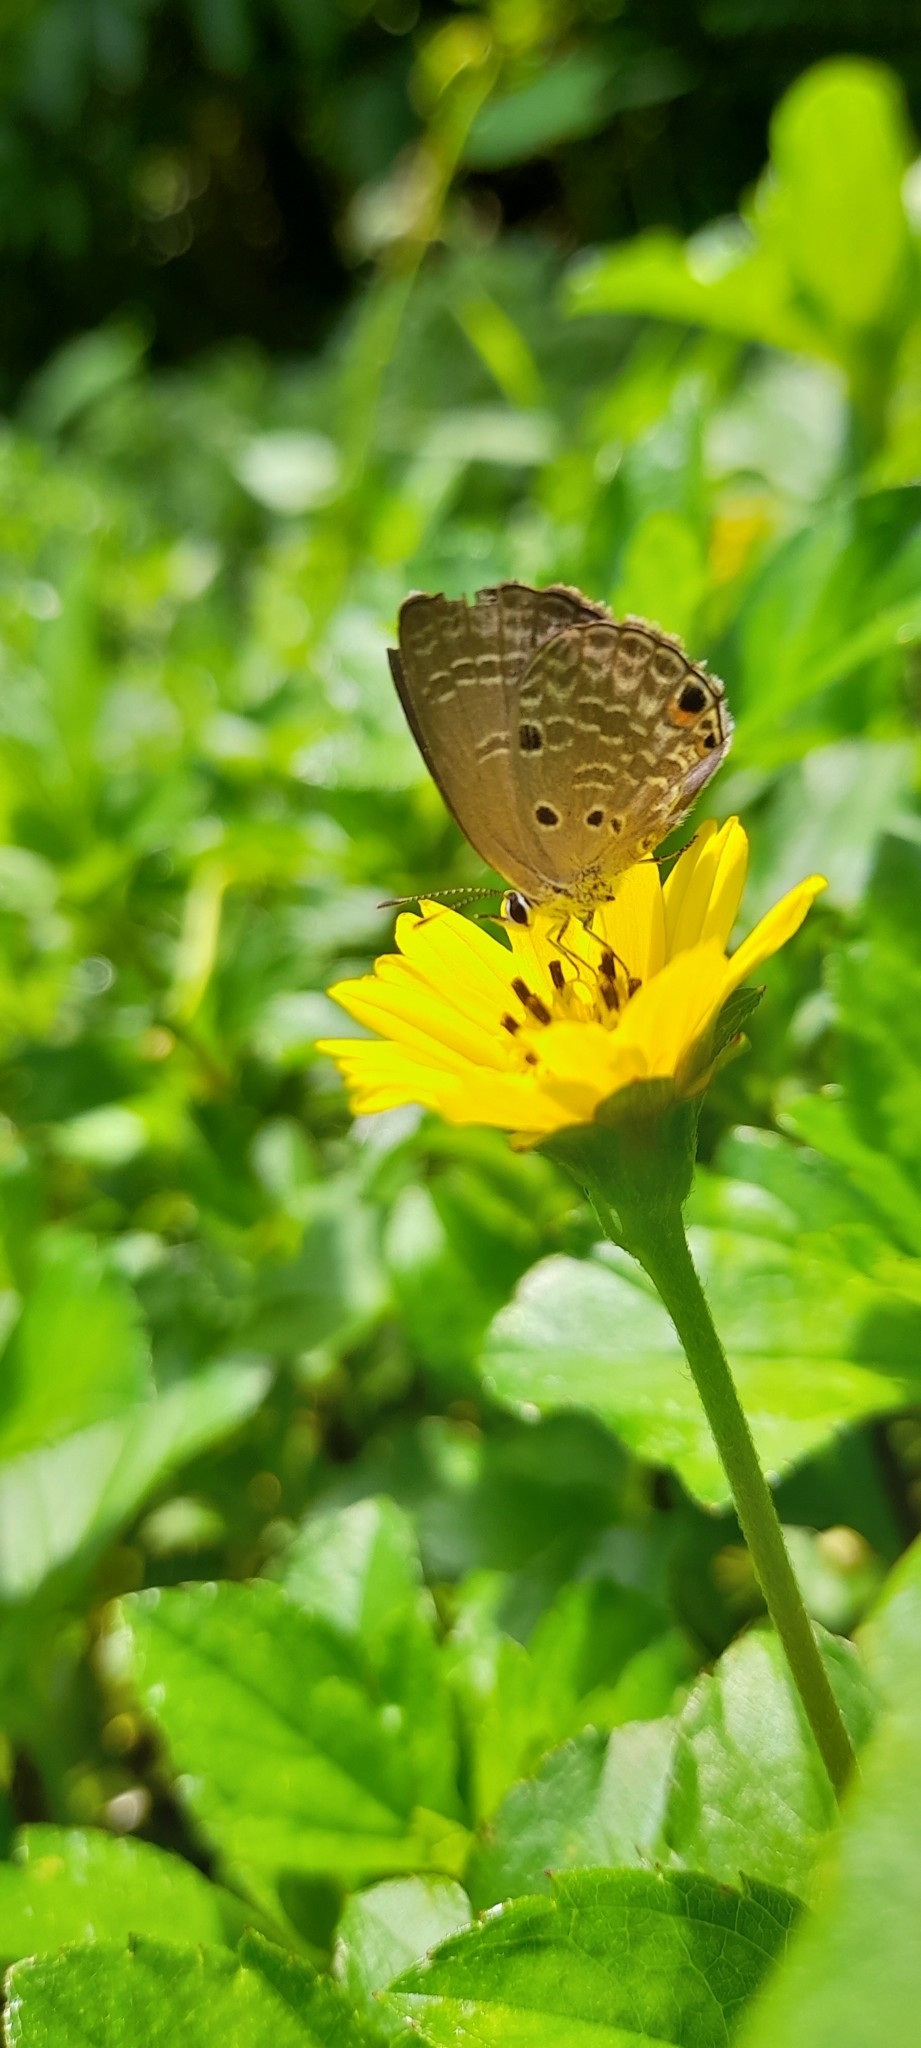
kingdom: Animalia
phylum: Arthropoda
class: Insecta
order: Lepidoptera
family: Lycaenidae
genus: Luthrodes
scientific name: Luthrodes pandava
